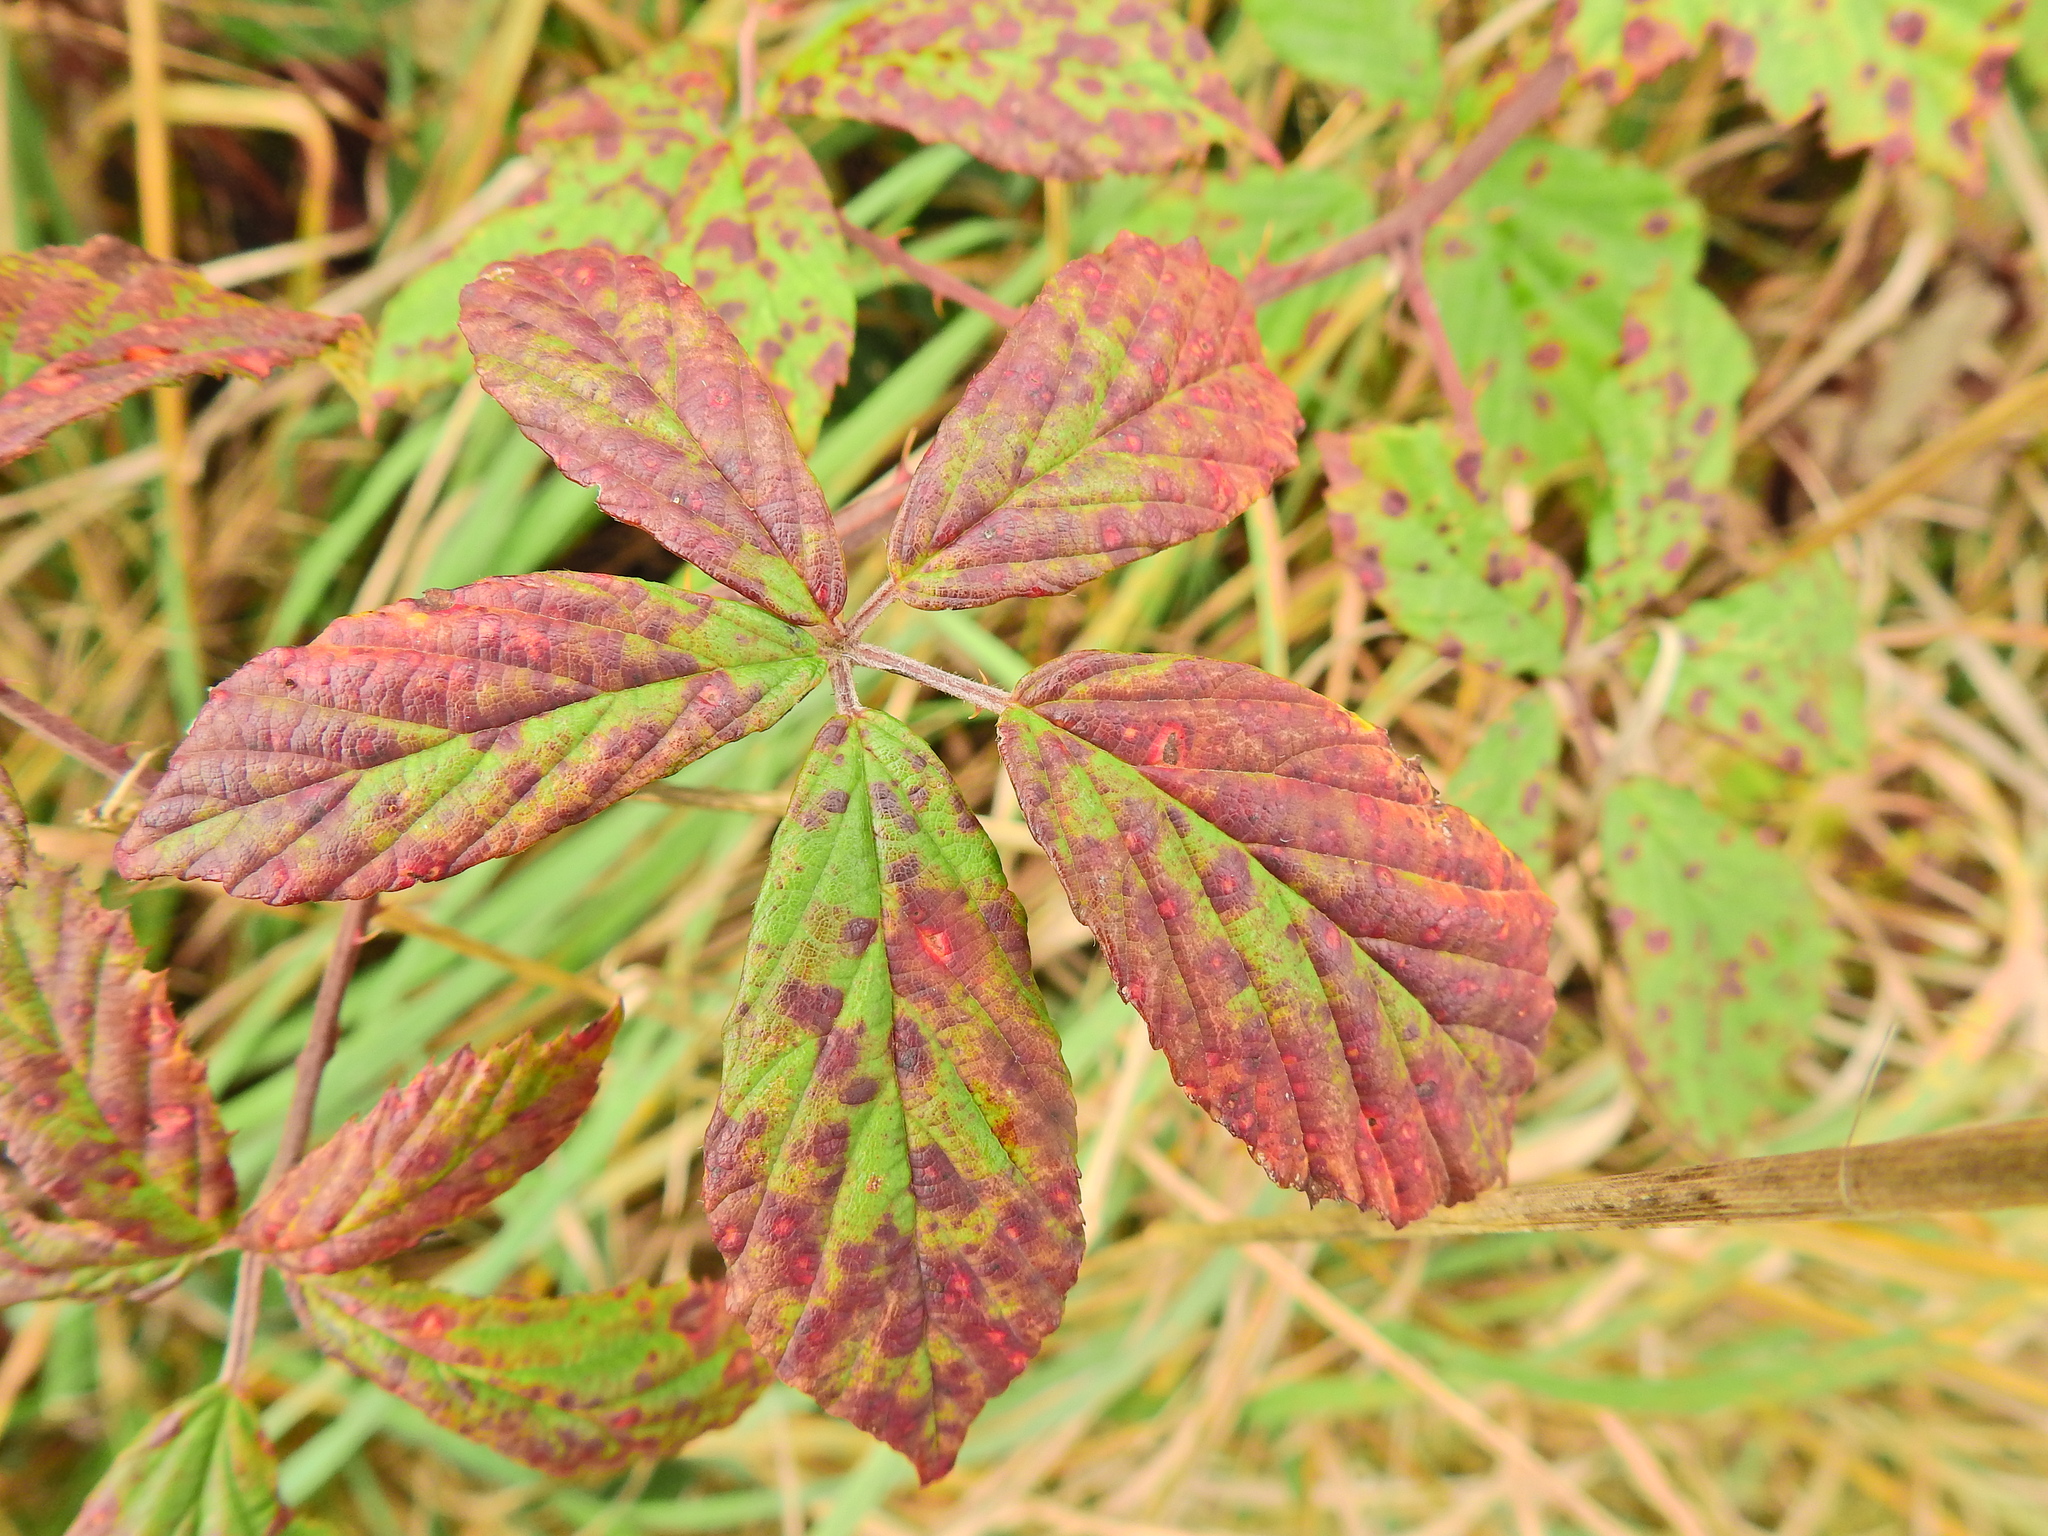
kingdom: Fungi
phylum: Basidiomycota
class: Pucciniomycetes
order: Pucciniales
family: Phragmidiaceae
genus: Phragmidium
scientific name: Phragmidium violaceum
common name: Violet bramble rust
